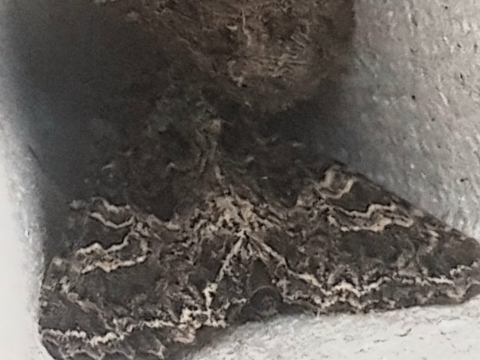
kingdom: Animalia
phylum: Arthropoda
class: Insecta
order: Lepidoptera
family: Noctuidae
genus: Sideridis
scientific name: Sideridis rivularis
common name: Campion
